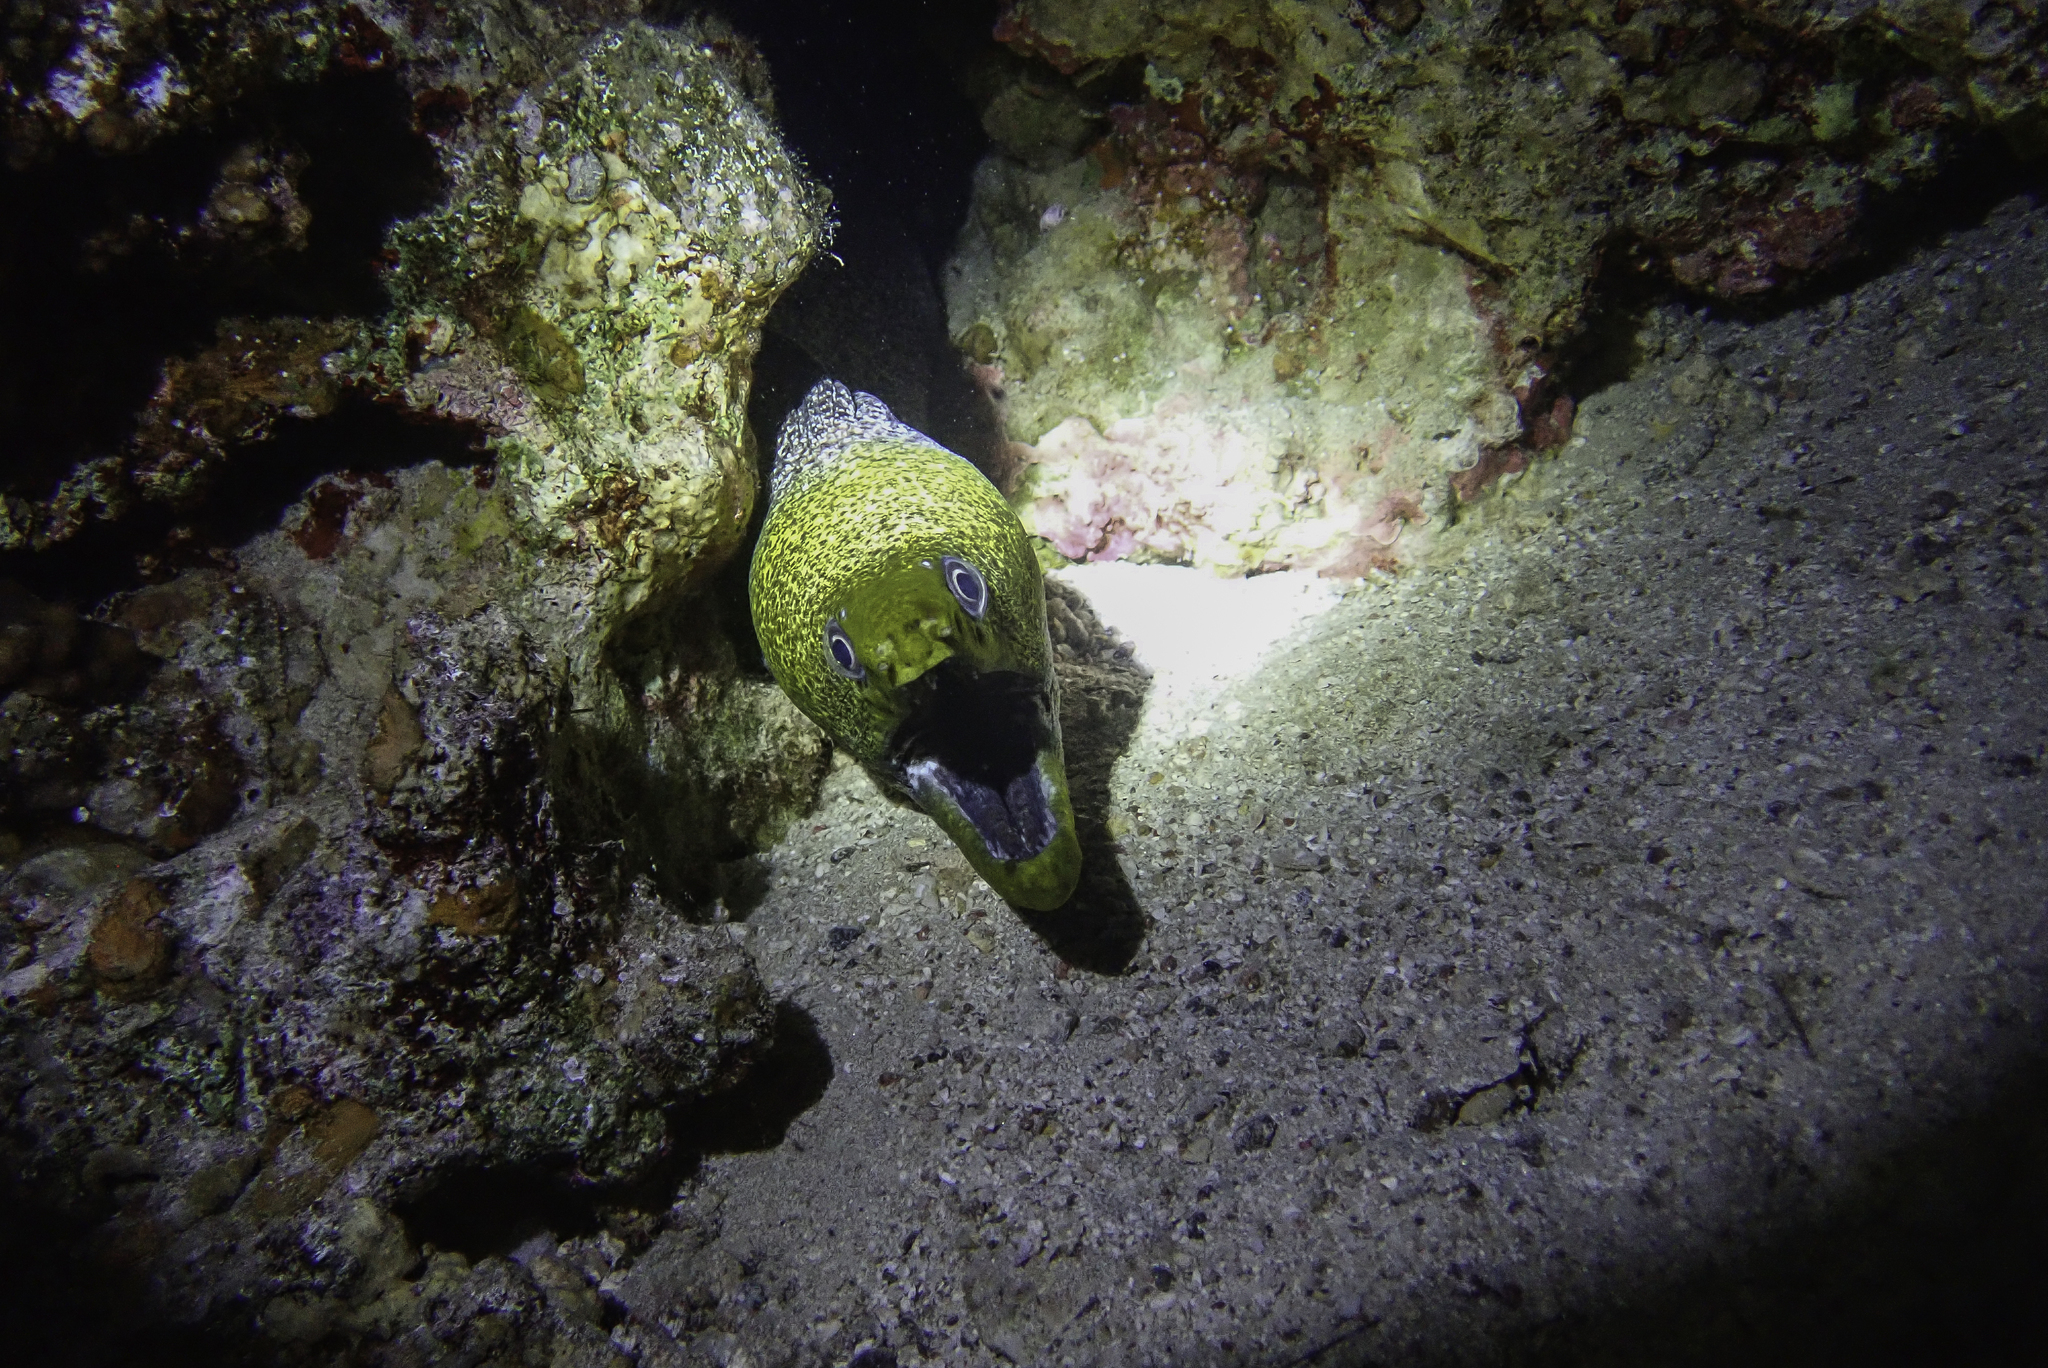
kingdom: Animalia
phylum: Chordata
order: Anguilliformes
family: Muraenidae
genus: Gymnothorax
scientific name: Gymnothorax undulatus
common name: Leopard moray
